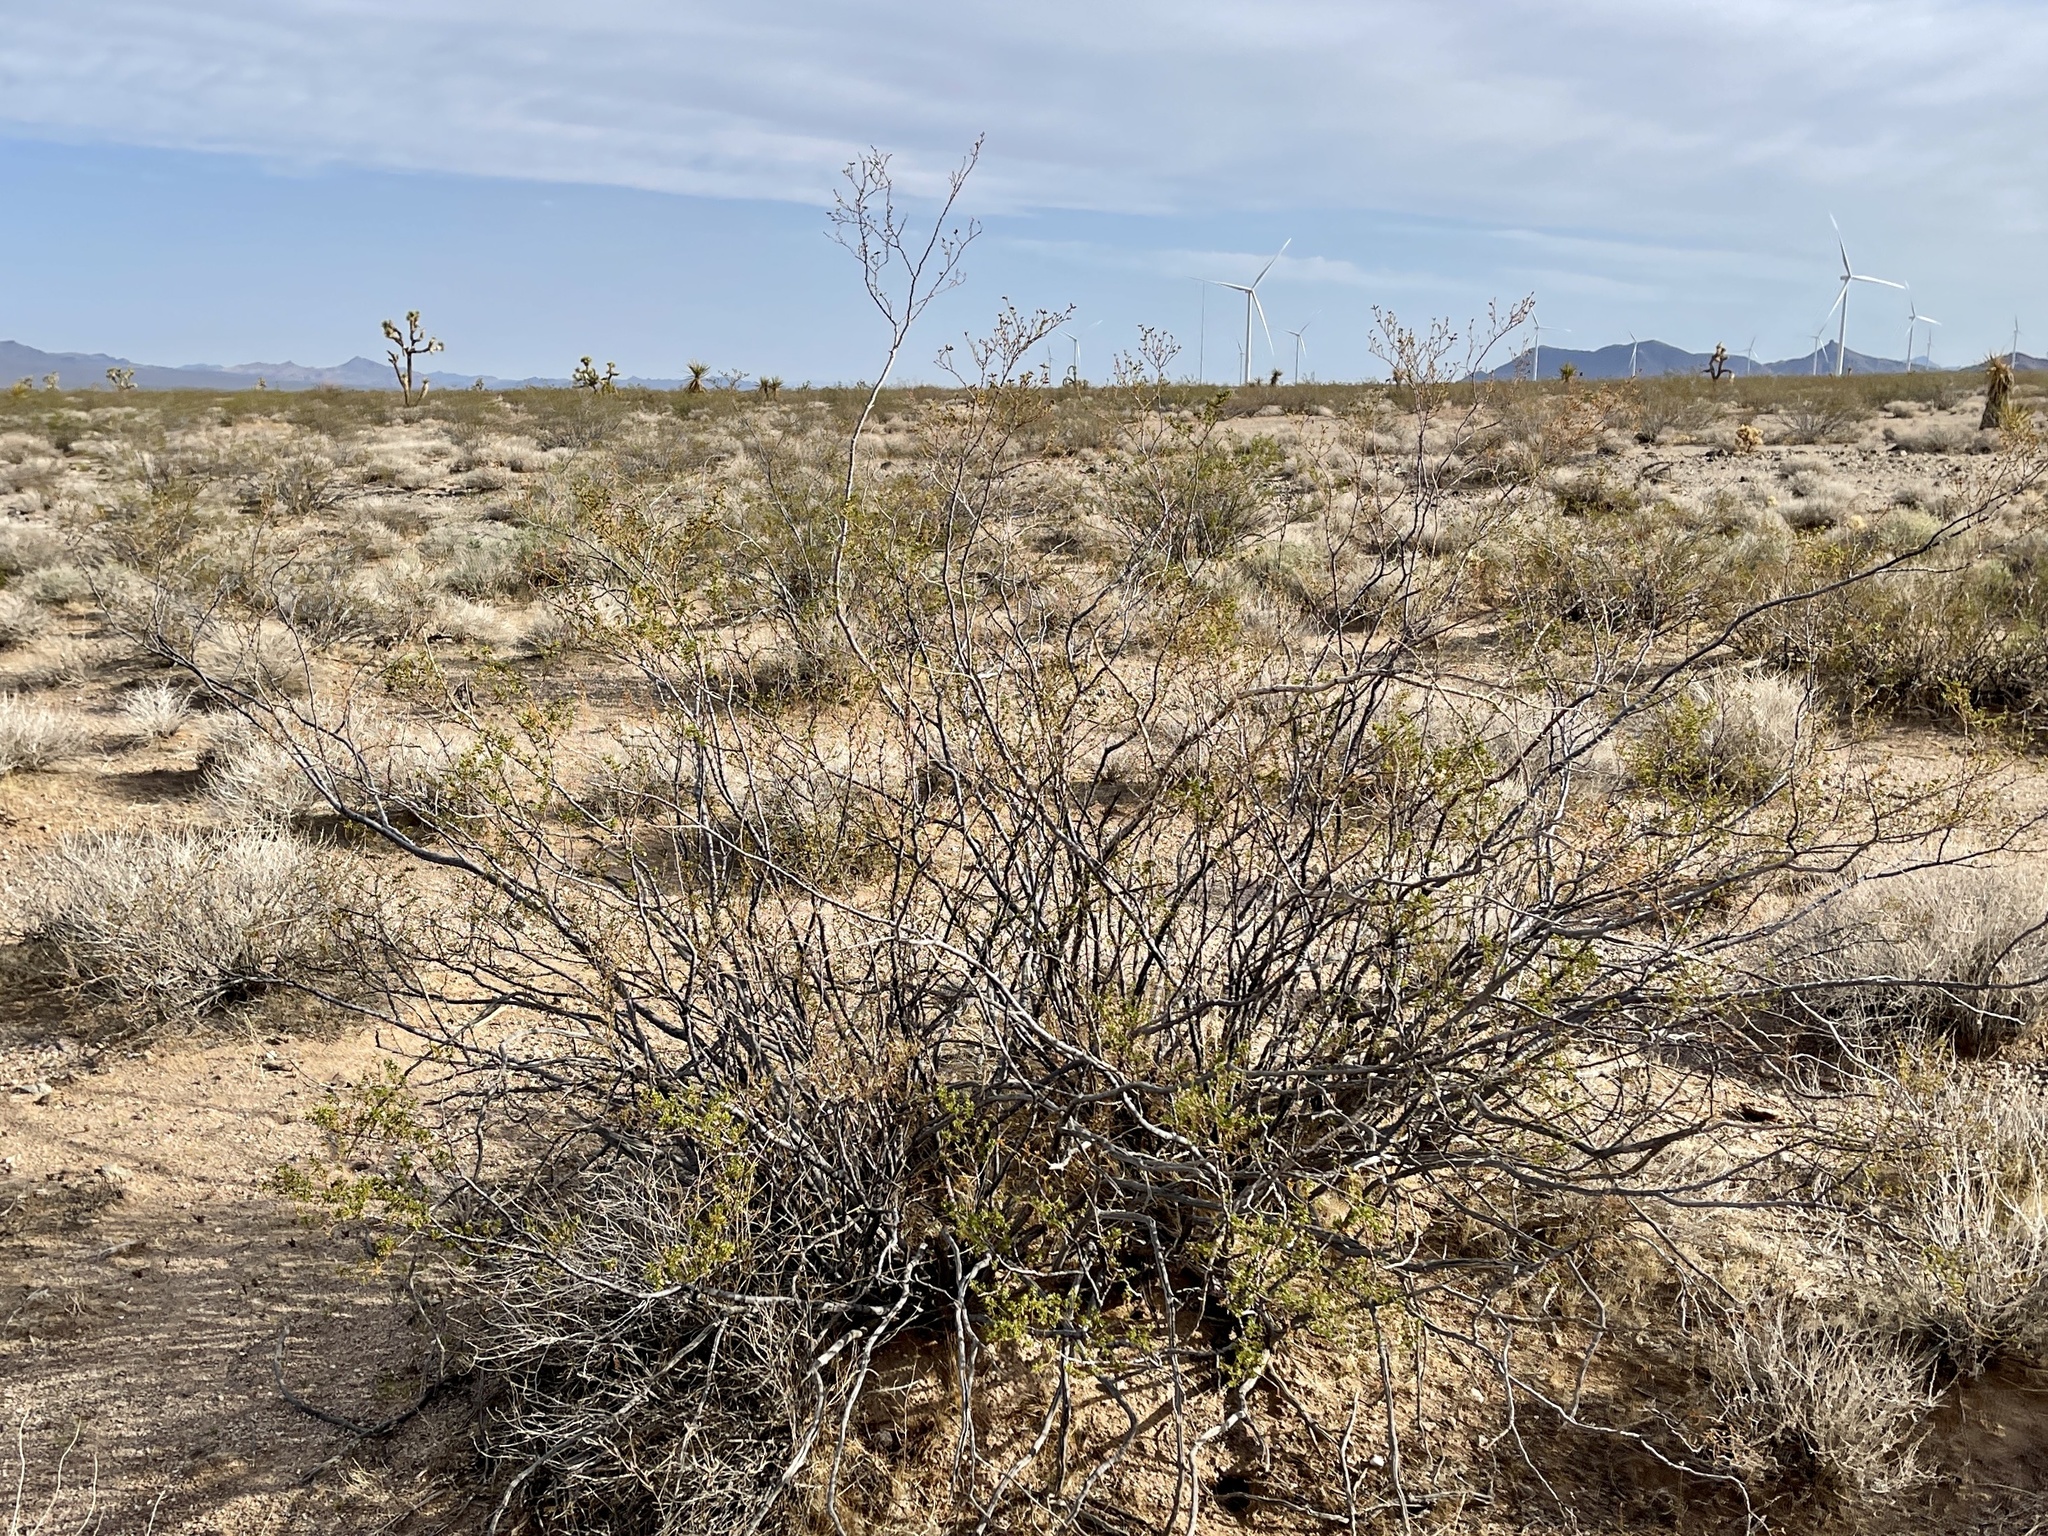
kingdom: Plantae
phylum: Tracheophyta
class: Magnoliopsida
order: Zygophyllales
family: Zygophyllaceae
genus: Larrea
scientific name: Larrea tridentata
